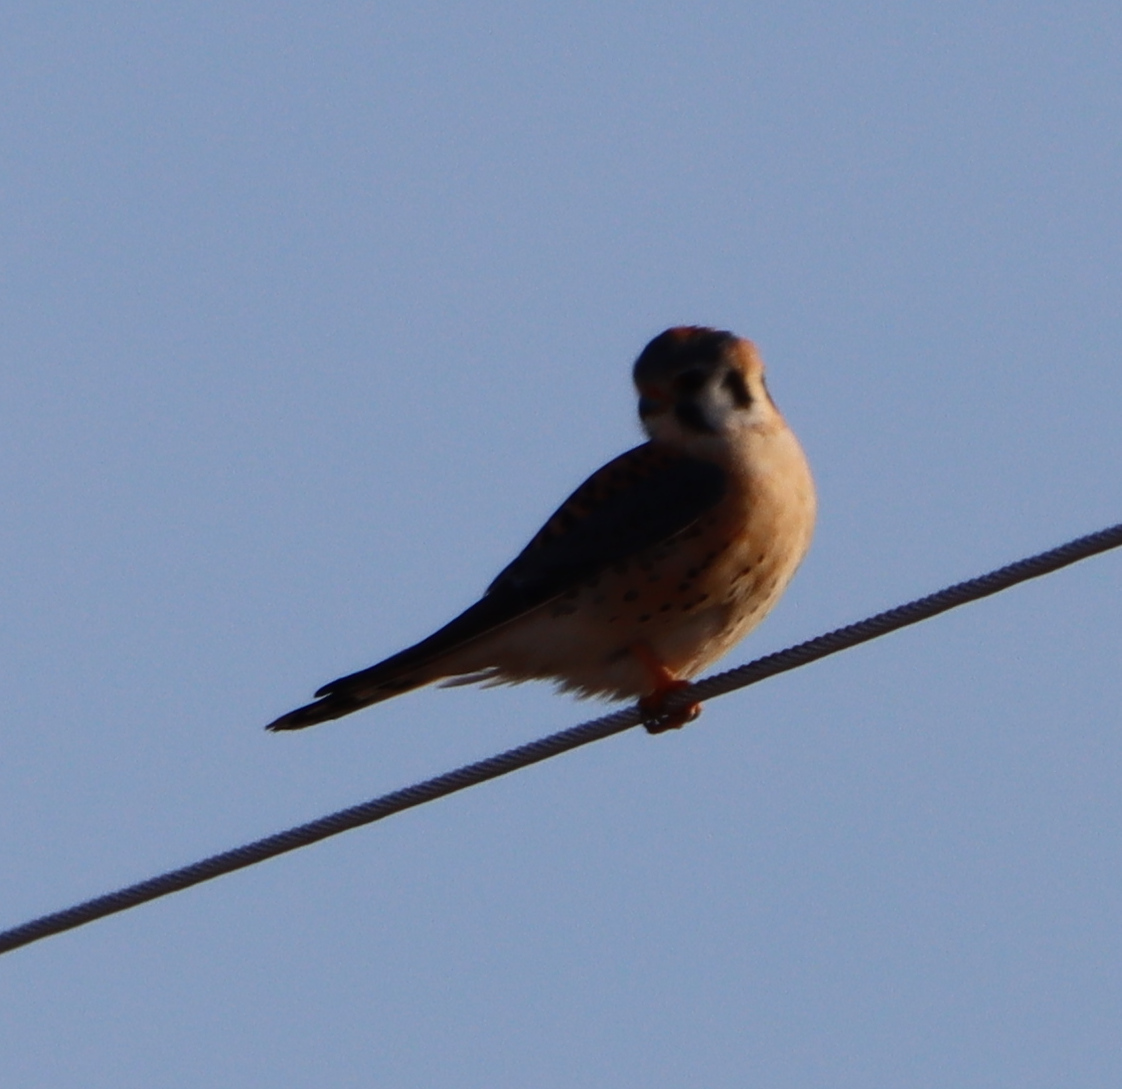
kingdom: Animalia
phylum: Chordata
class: Aves
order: Falconiformes
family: Falconidae
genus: Falco
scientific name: Falco sparverius
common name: American kestrel
